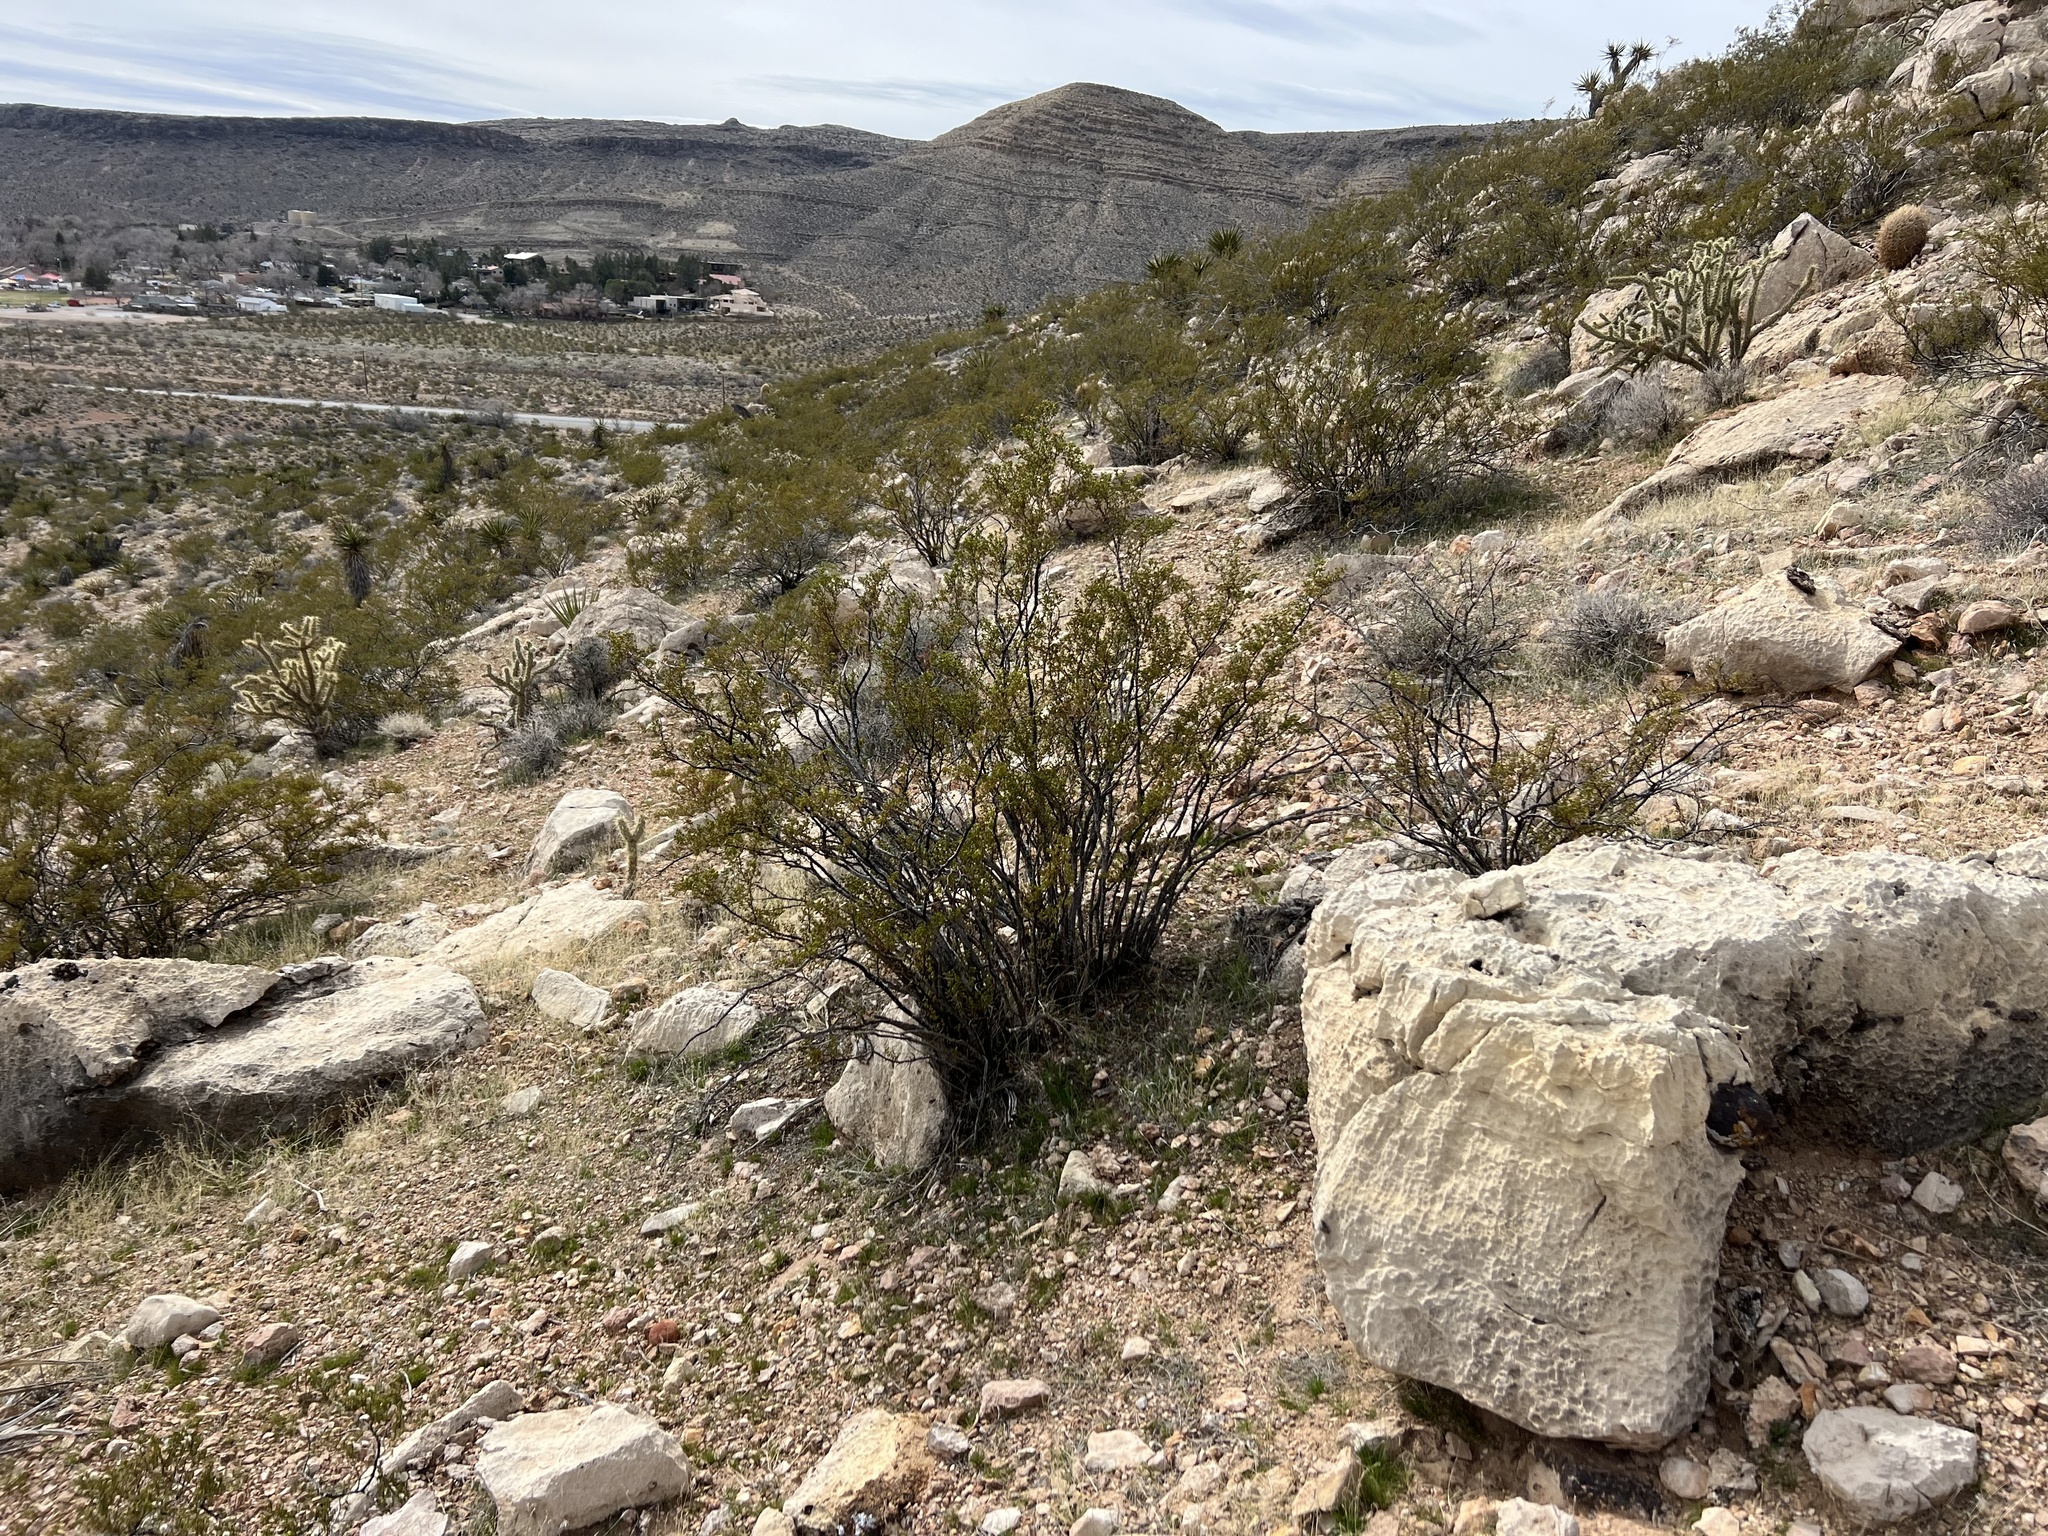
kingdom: Plantae
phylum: Tracheophyta
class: Magnoliopsida
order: Zygophyllales
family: Zygophyllaceae
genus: Larrea
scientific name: Larrea tridentata
